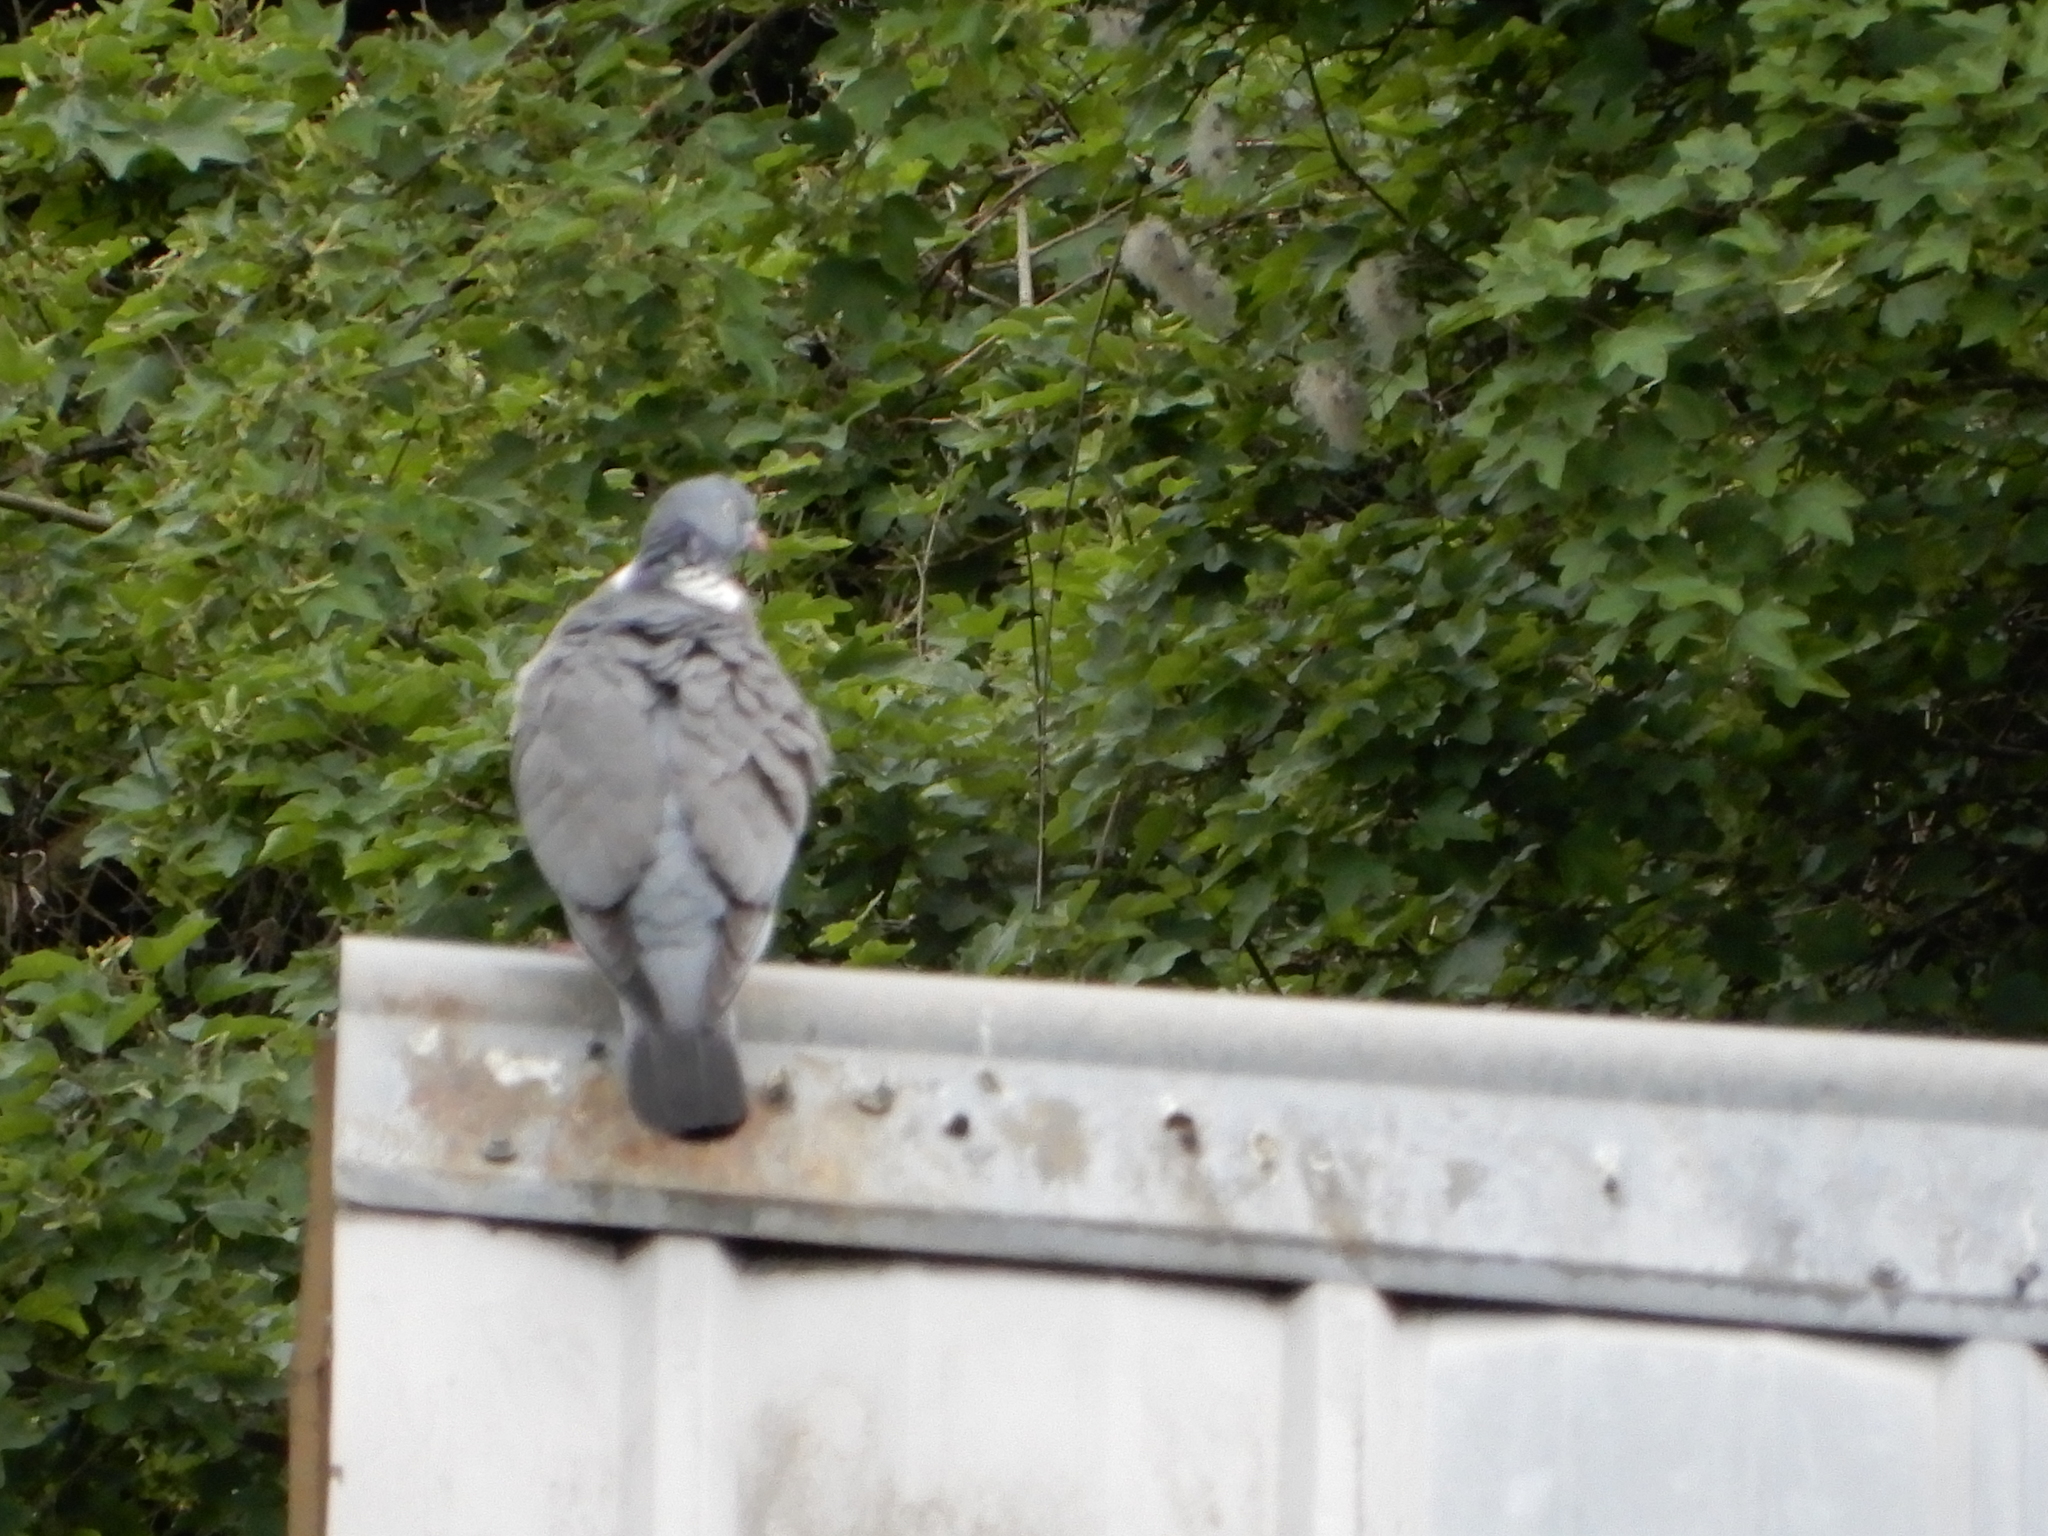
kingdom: Animalia
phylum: Chordata
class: Aves
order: Columbiformes
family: Columbidae
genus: Columba
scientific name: Columba palumbus
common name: Common wood pigeon
